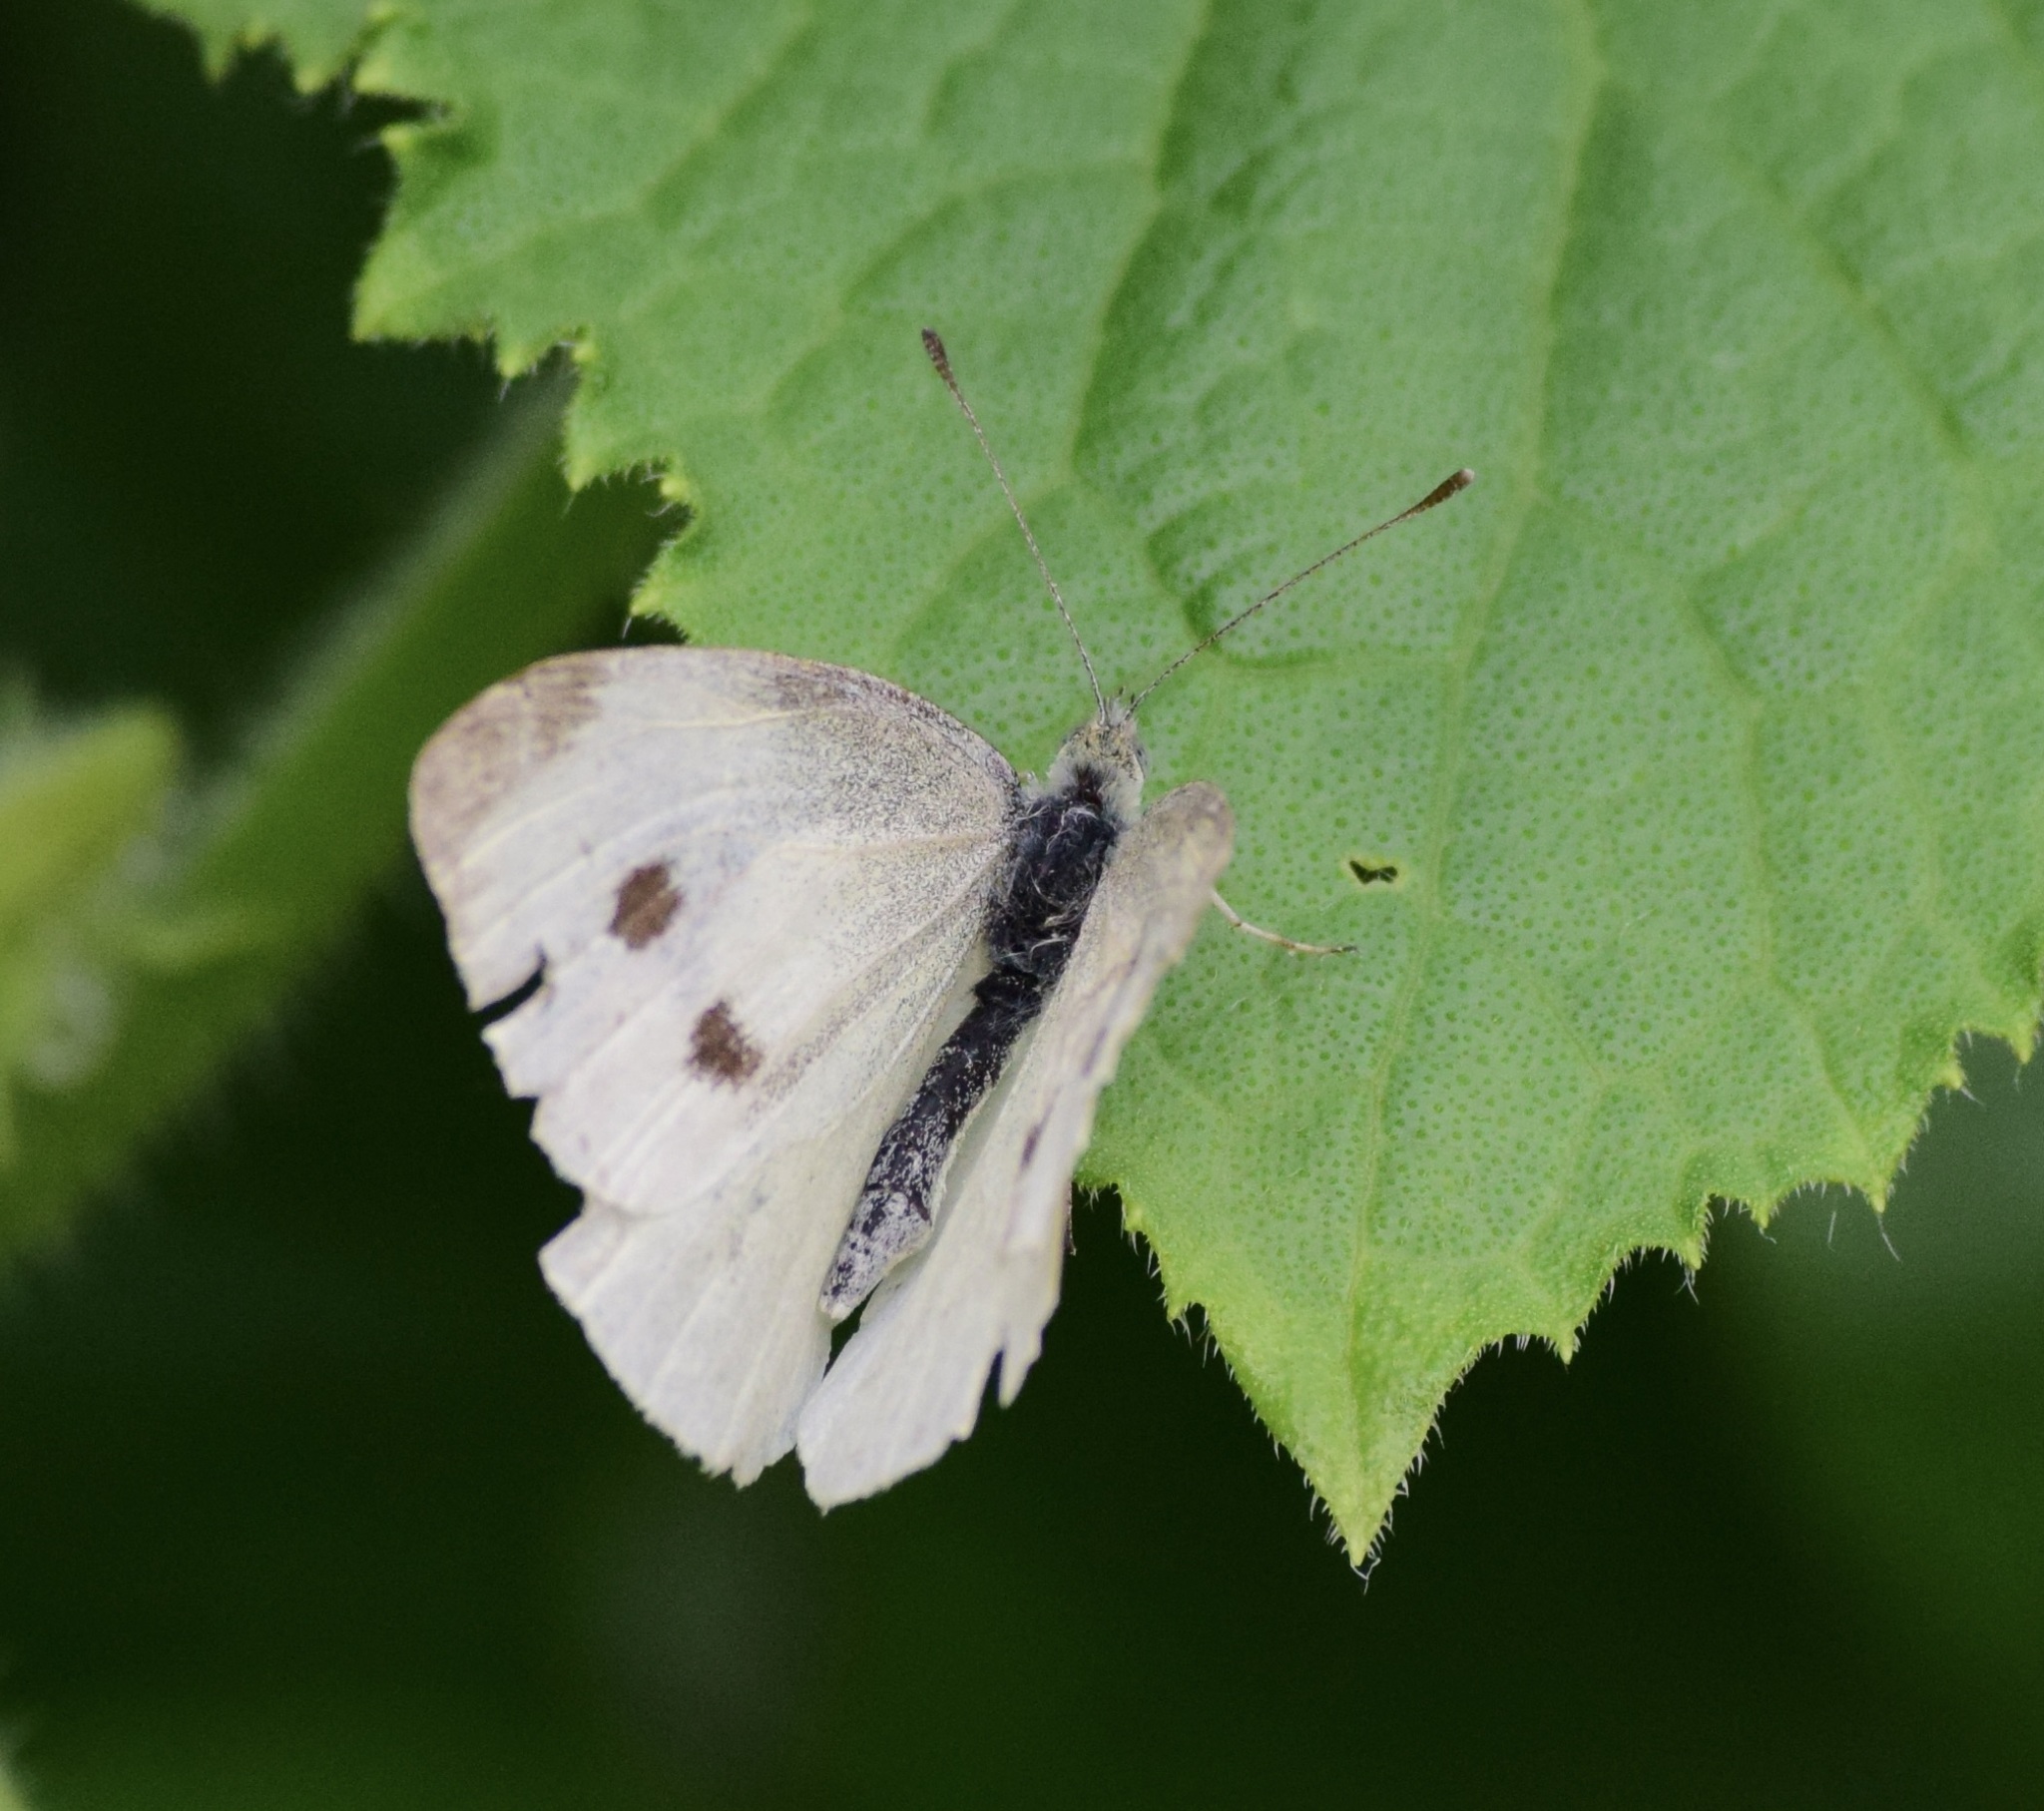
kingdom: Animalia
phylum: Arthropoda
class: Insecta
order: Lepidoptera
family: Pieridae
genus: Pieris
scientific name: Pieris rapae
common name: Small white
